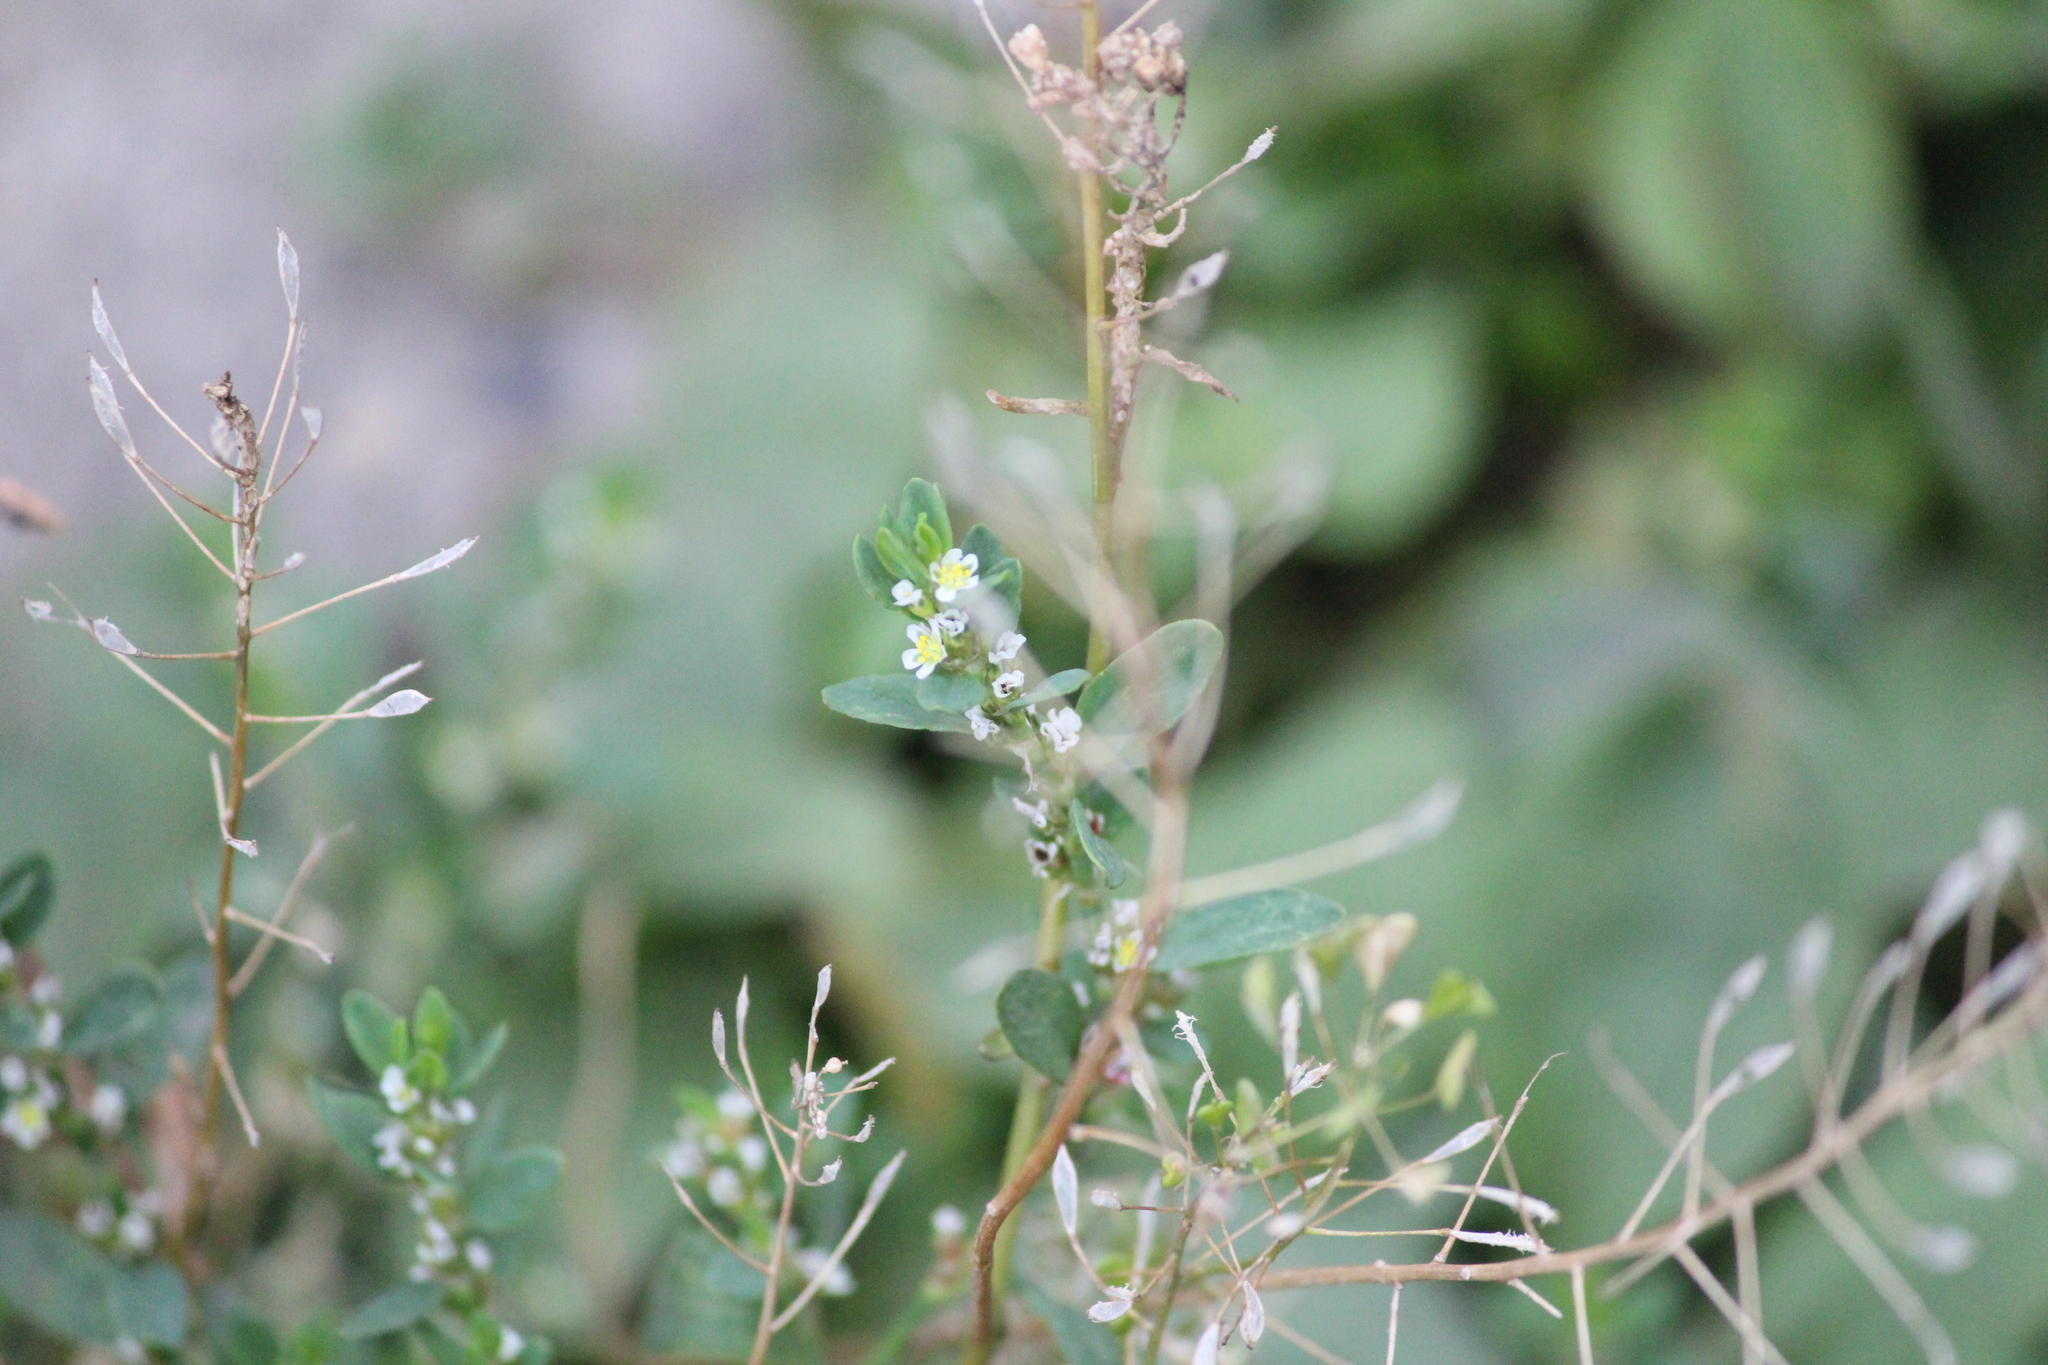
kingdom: Plantae
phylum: Tracheophyta
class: Magnoliopsida
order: Brassicales
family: Brassicaceae
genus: Capsella
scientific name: Capsella bursa-pastoris
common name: Shepherd's purse
